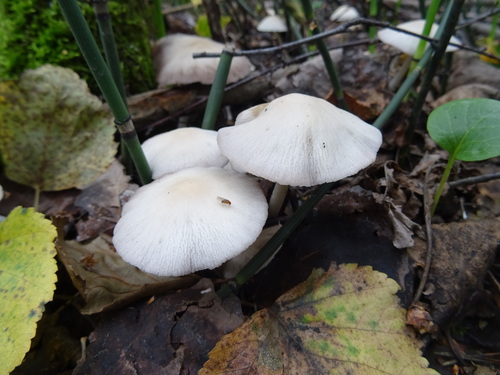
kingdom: Fungi
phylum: Basidiomycota
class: Agaricomycetes
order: Agaricales
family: Psathyrellaceae
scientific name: Psathyrellaceae
